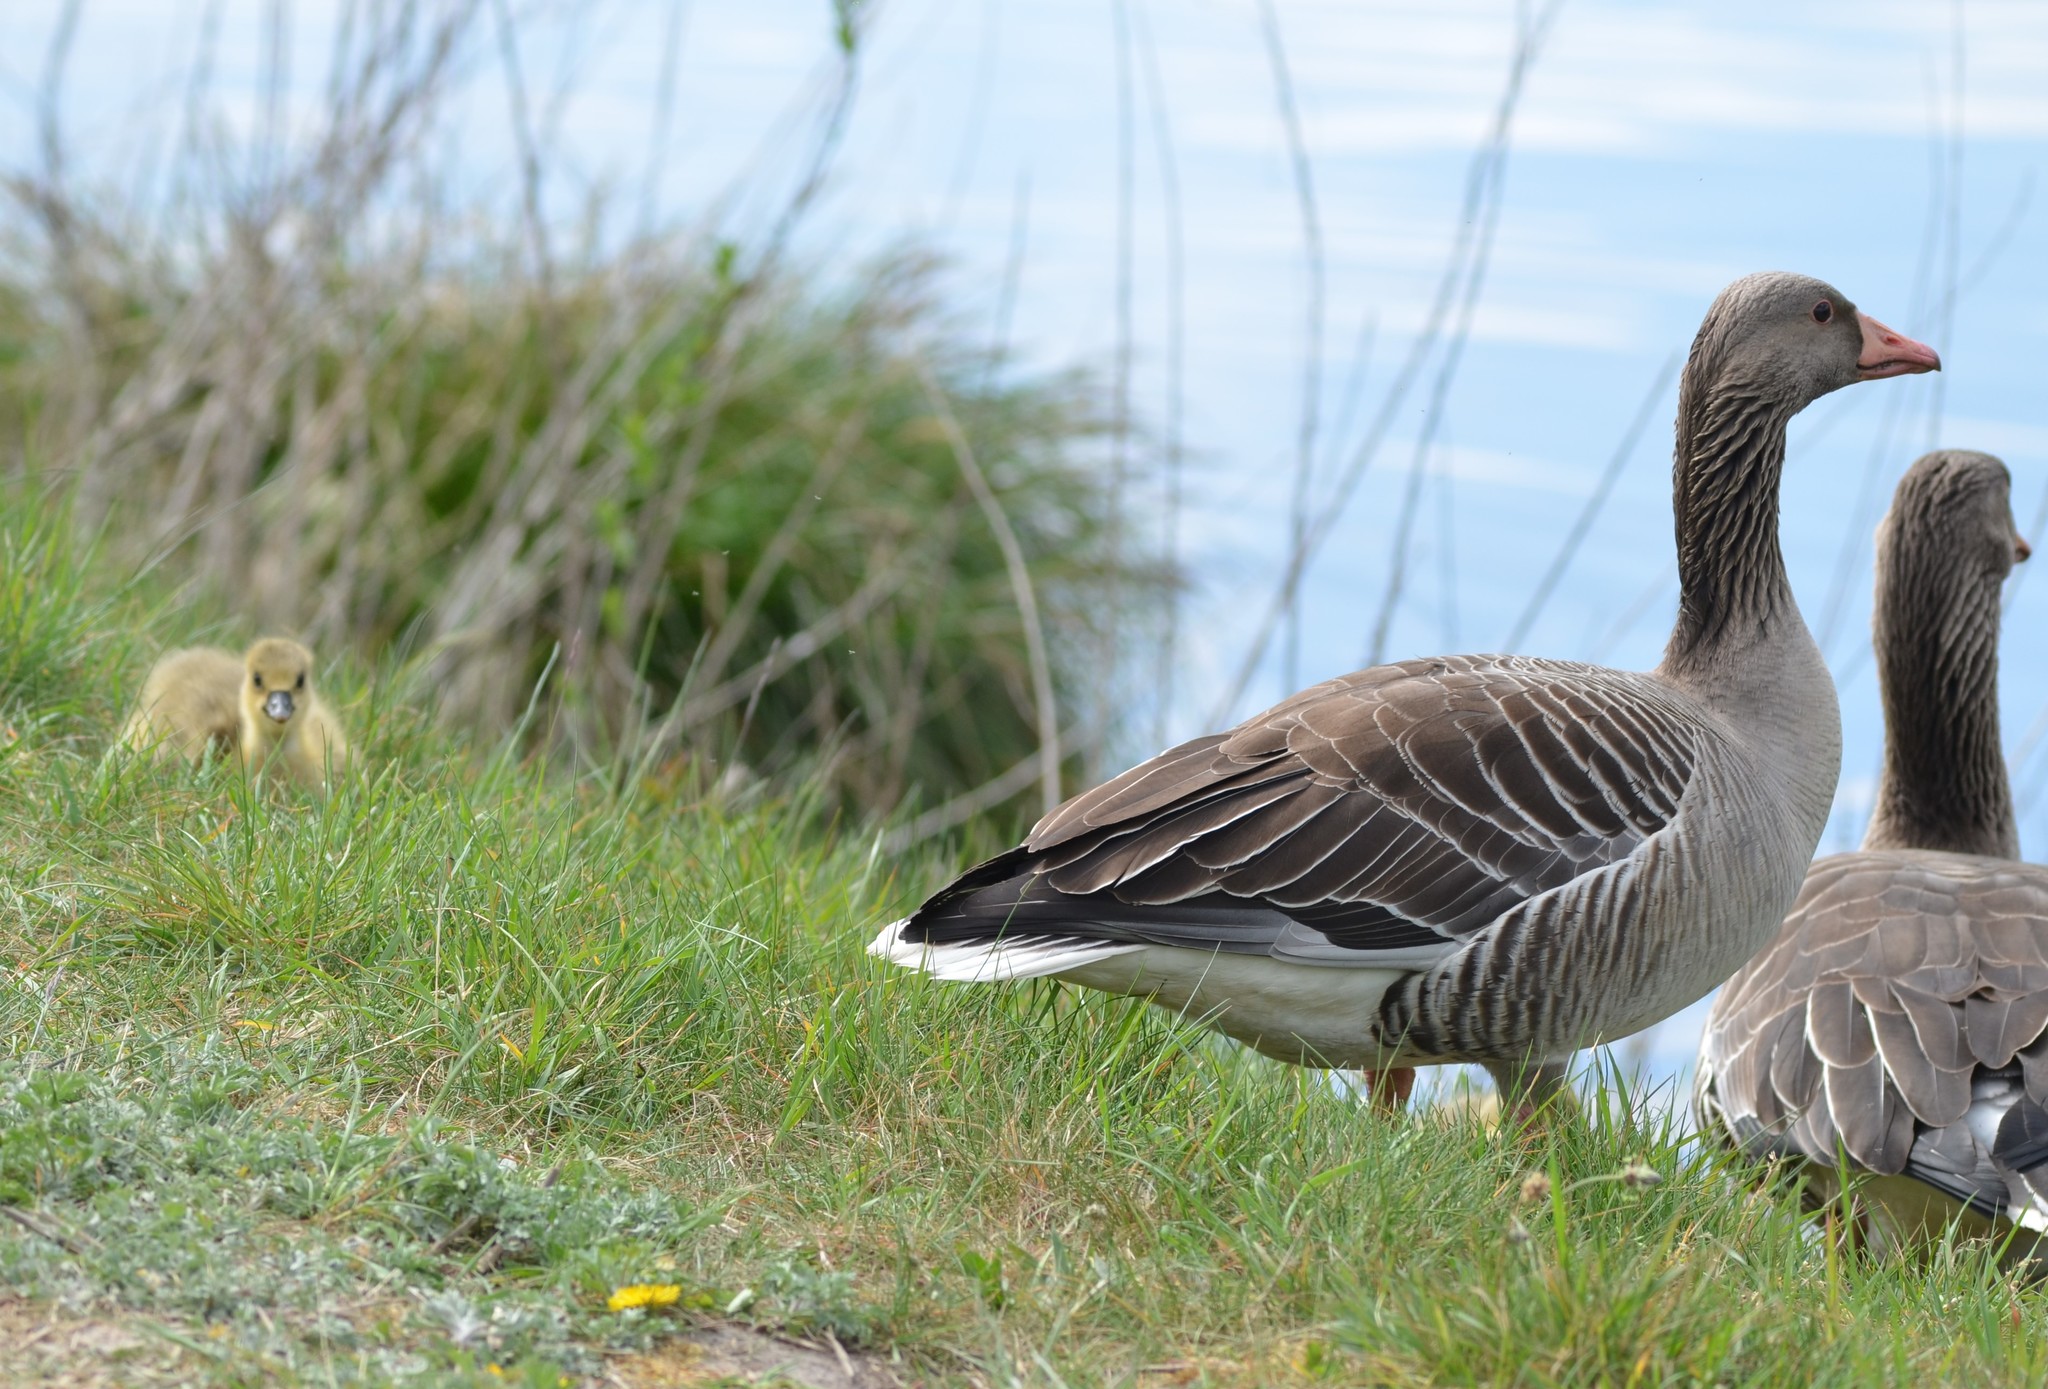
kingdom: Animalia
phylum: Chordata
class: Aves
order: Anseriformes
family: Anatidae
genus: Anser
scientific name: Anser anser
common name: Greylag goose
